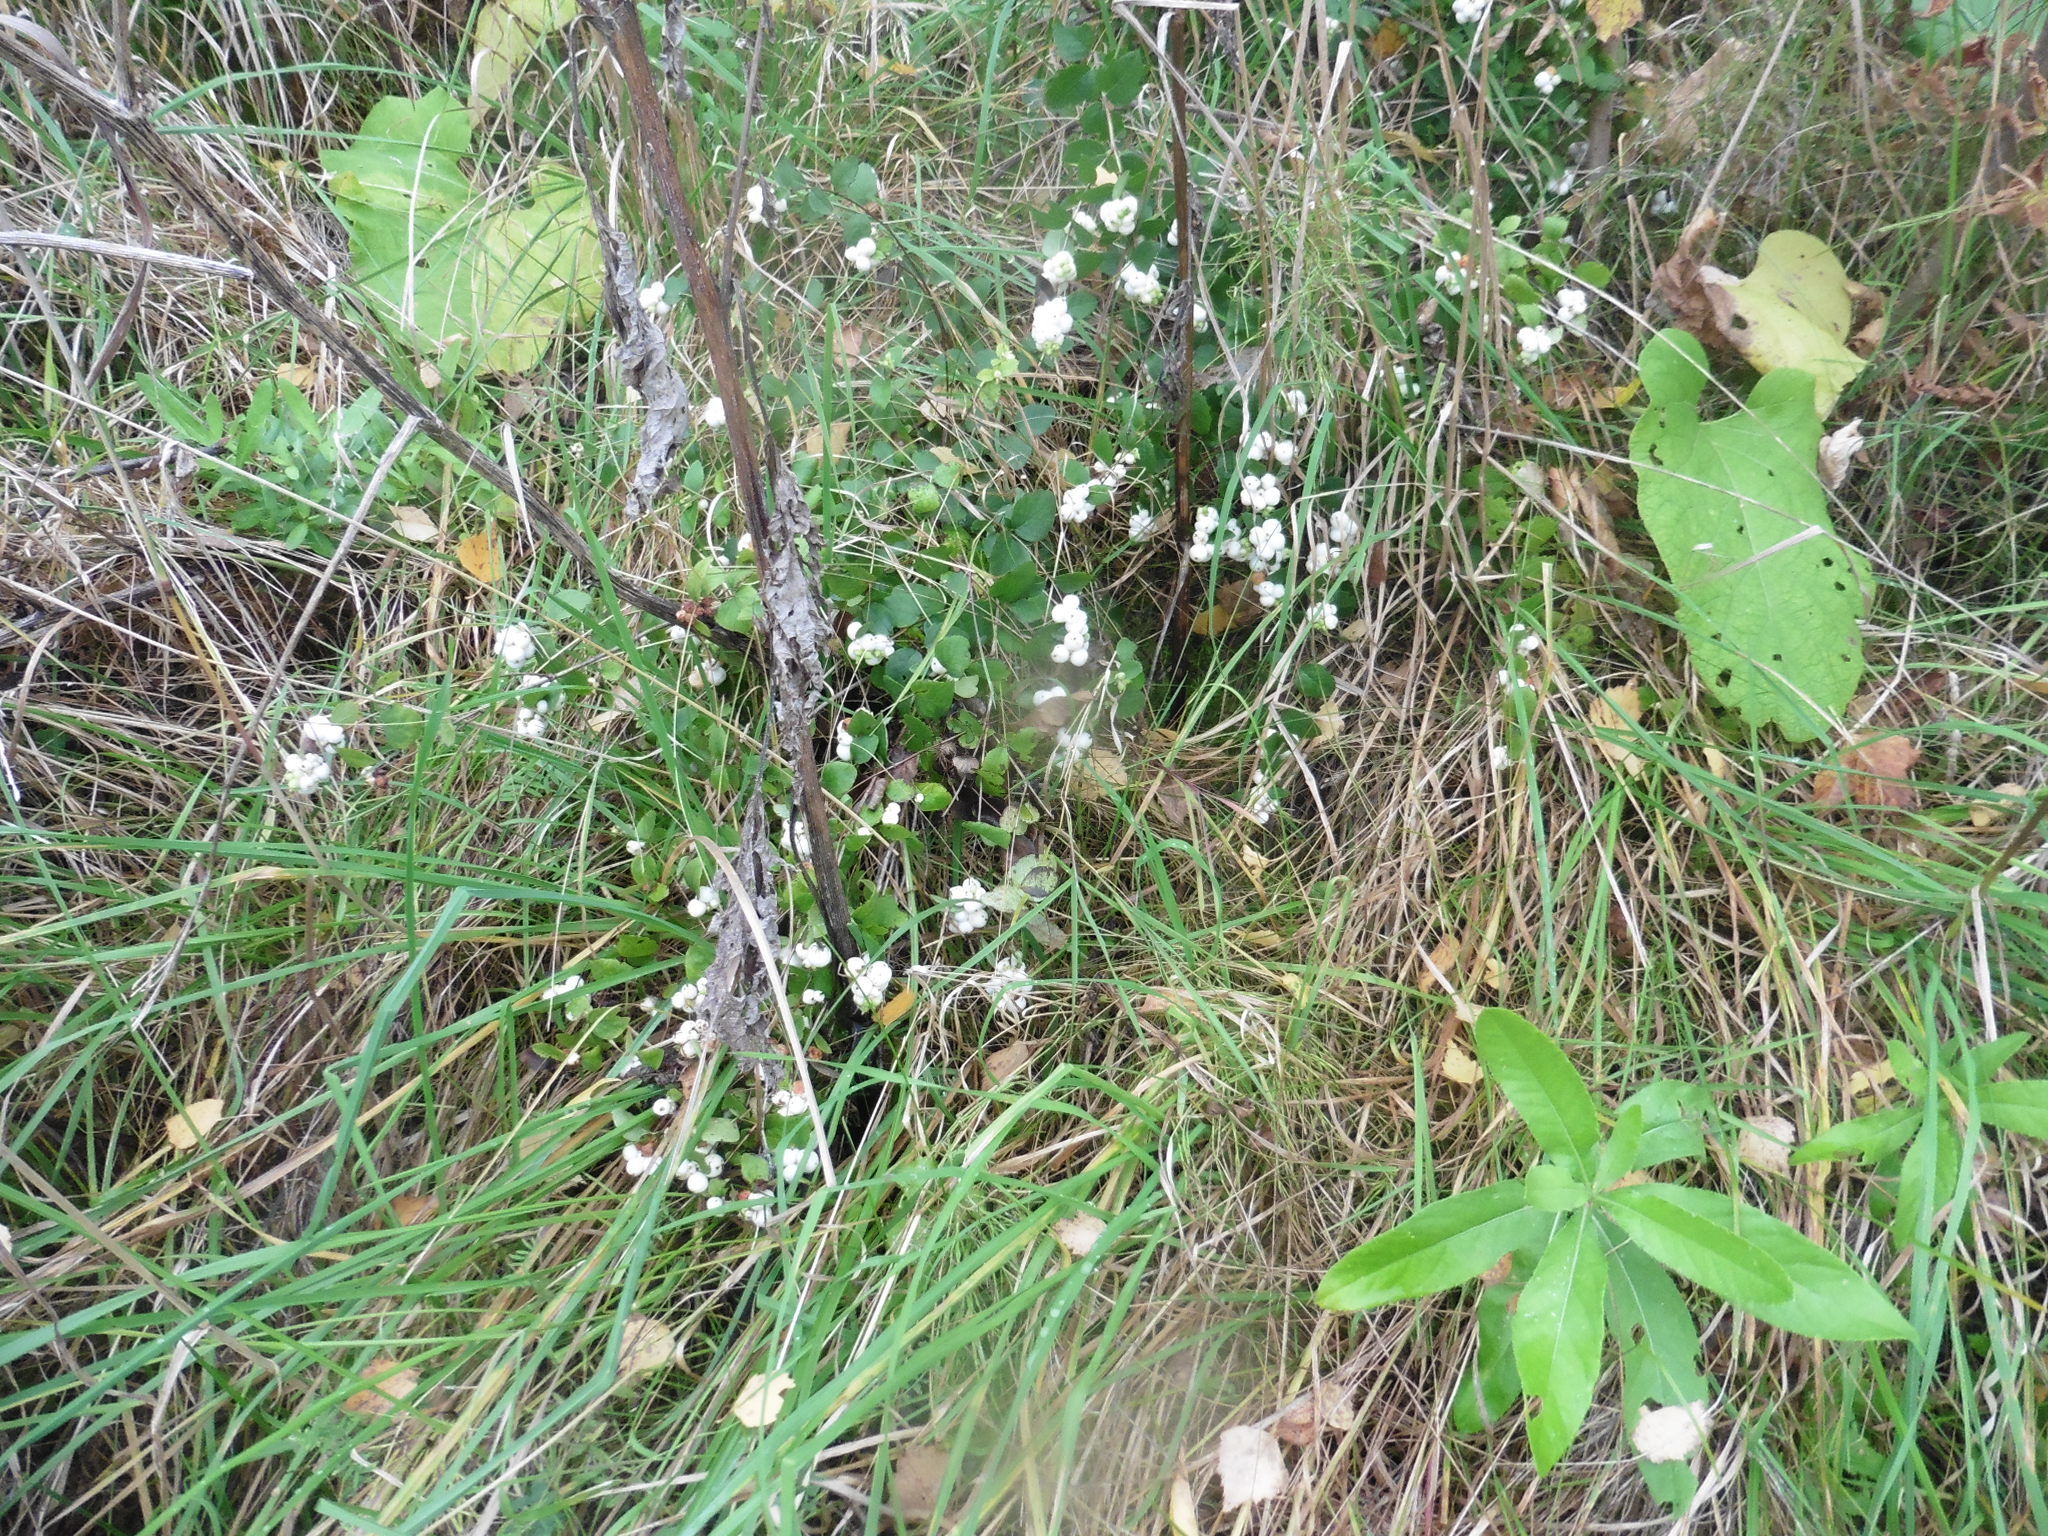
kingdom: Plantae
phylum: Tracheophyta
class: Magnoliopsida
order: Dipsacales
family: Caprifoliaceae
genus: Symphoricarpos
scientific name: Symphoricarpos albus
